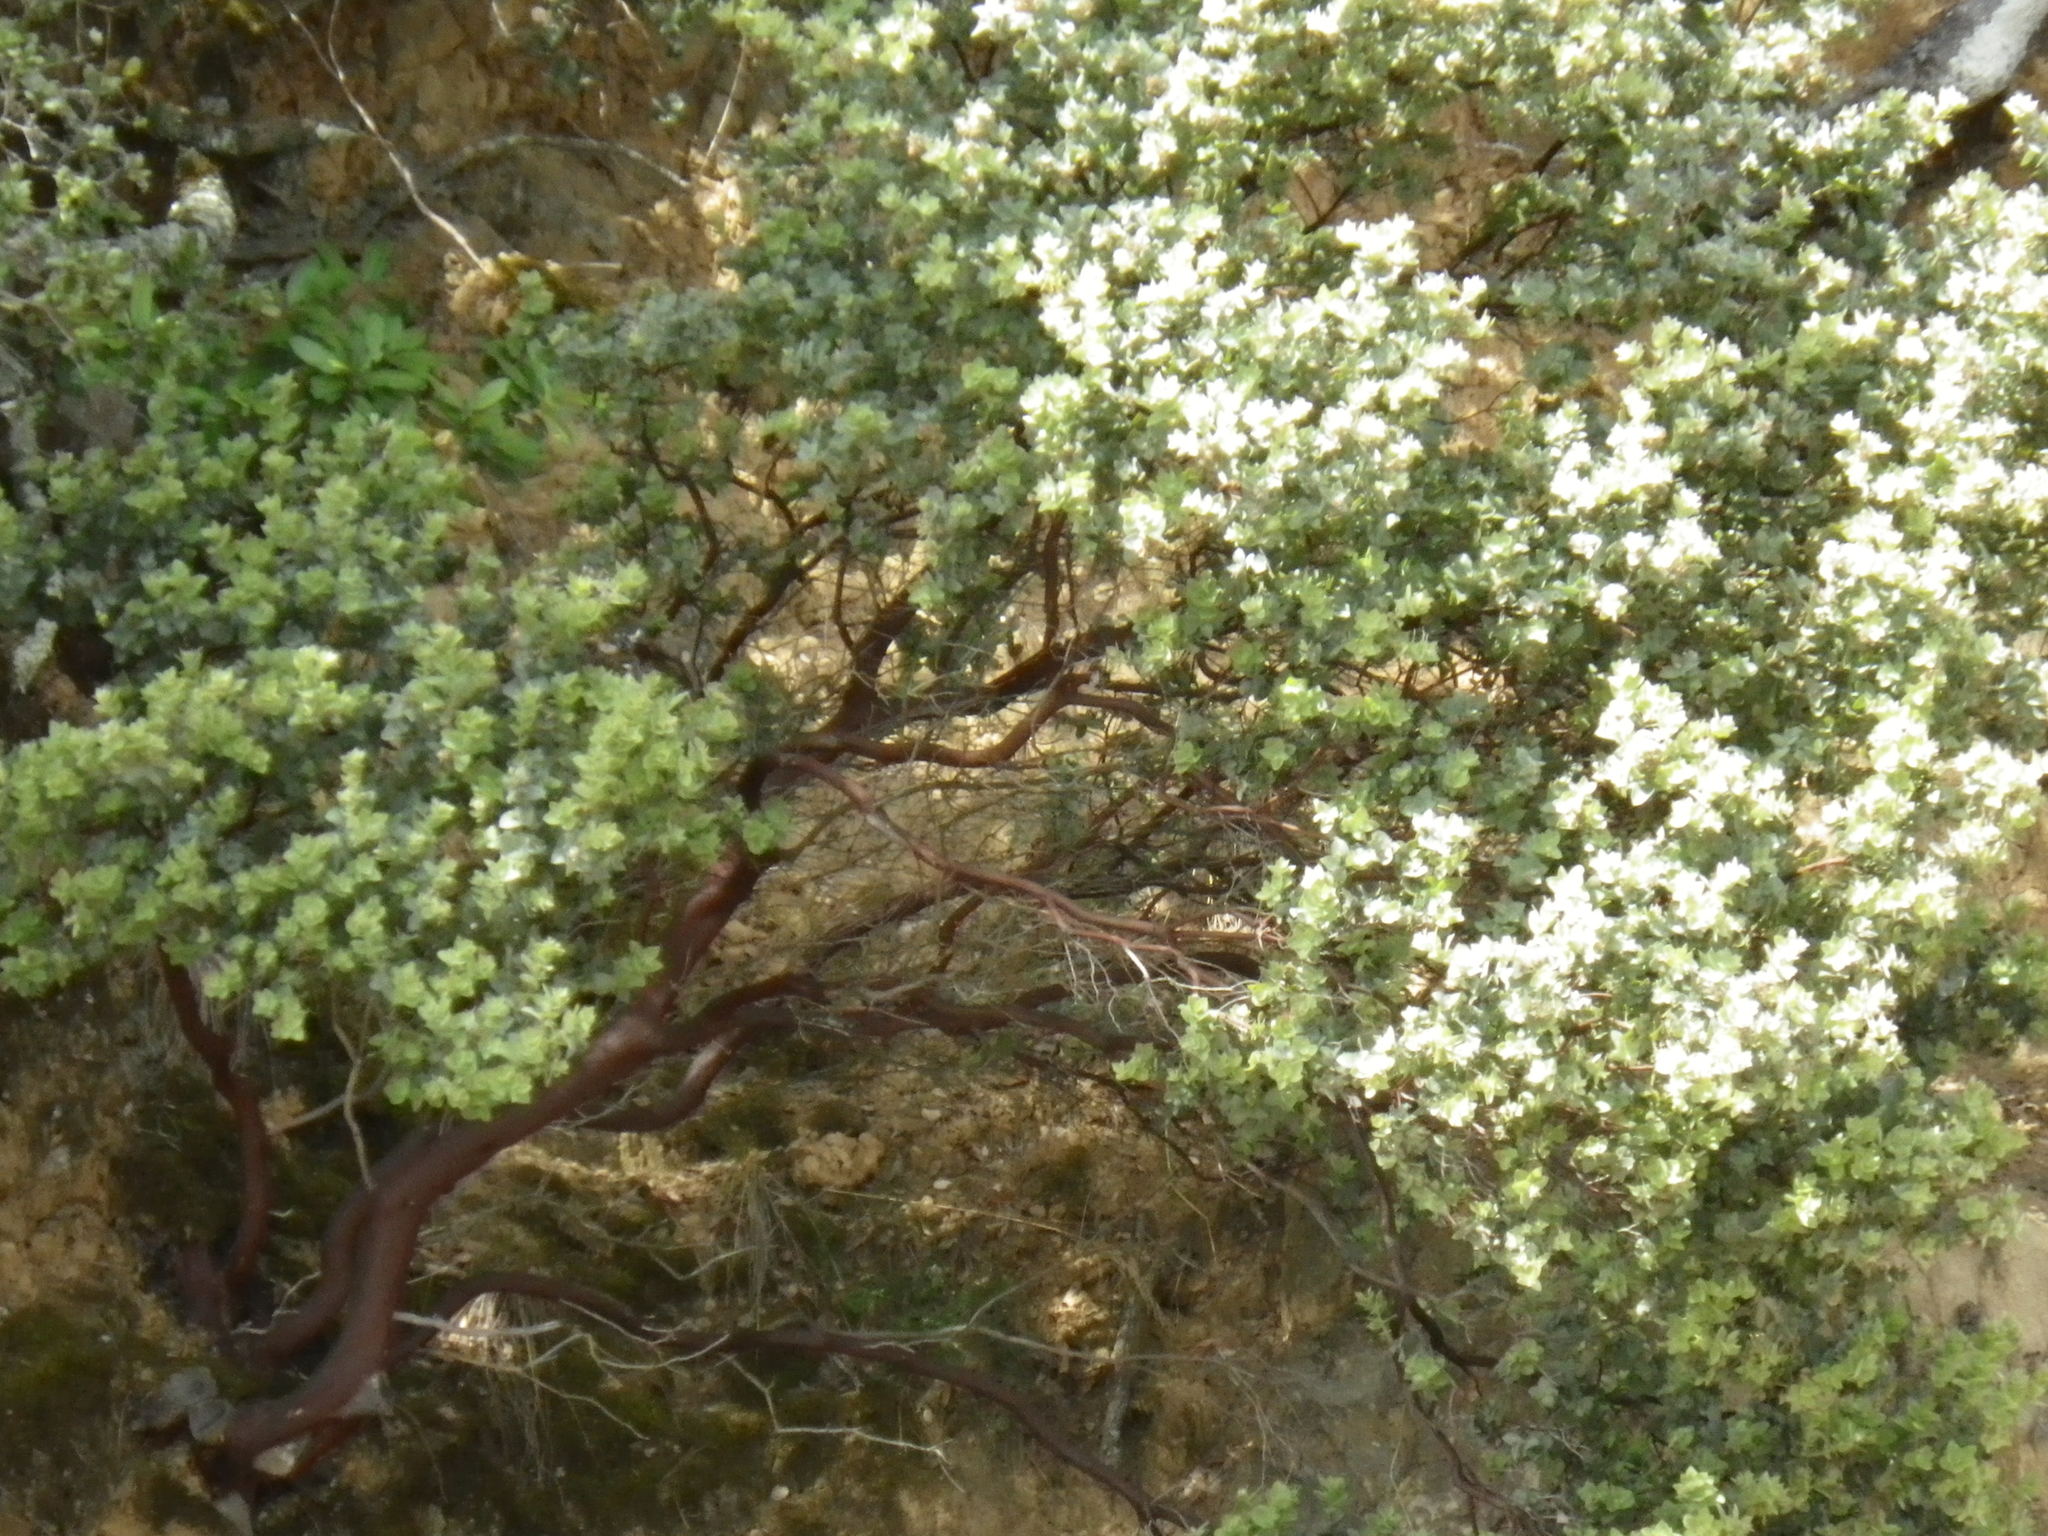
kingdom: Plantae
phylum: Tracheophyta
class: Magnoliopsida
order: Ericales
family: Ericaceae
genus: Arctostaphylos
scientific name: Arctostaphylos auriculata
